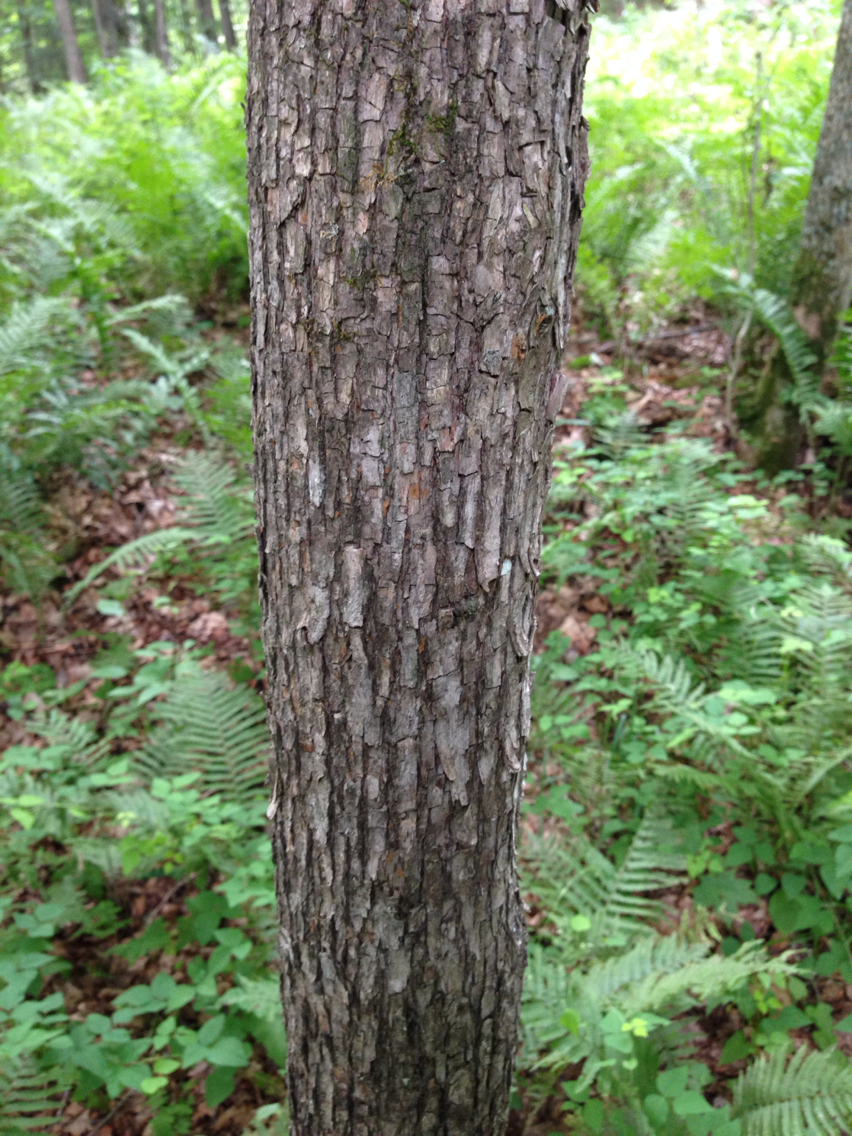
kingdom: Plantae
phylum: Tracheophyta
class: Magnoliopsida
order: Fagales
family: Betulaceae
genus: Ostrya
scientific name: Ostrya virginiana
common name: Ironwood
